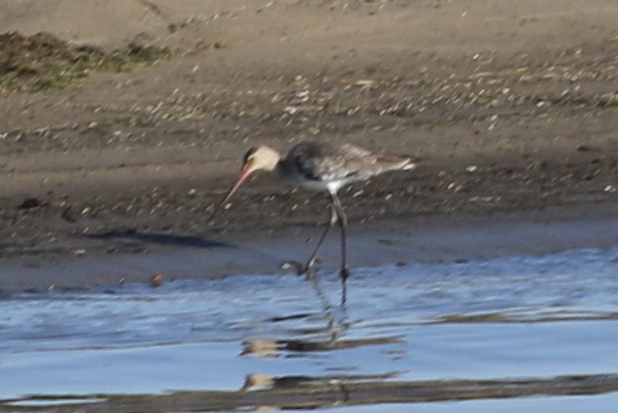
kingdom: Animalia
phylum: Chordata
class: Aves
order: Charadriiformes
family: Scolopacidae
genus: Limosa
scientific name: Limosa limosa
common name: Black-tailed godwit
